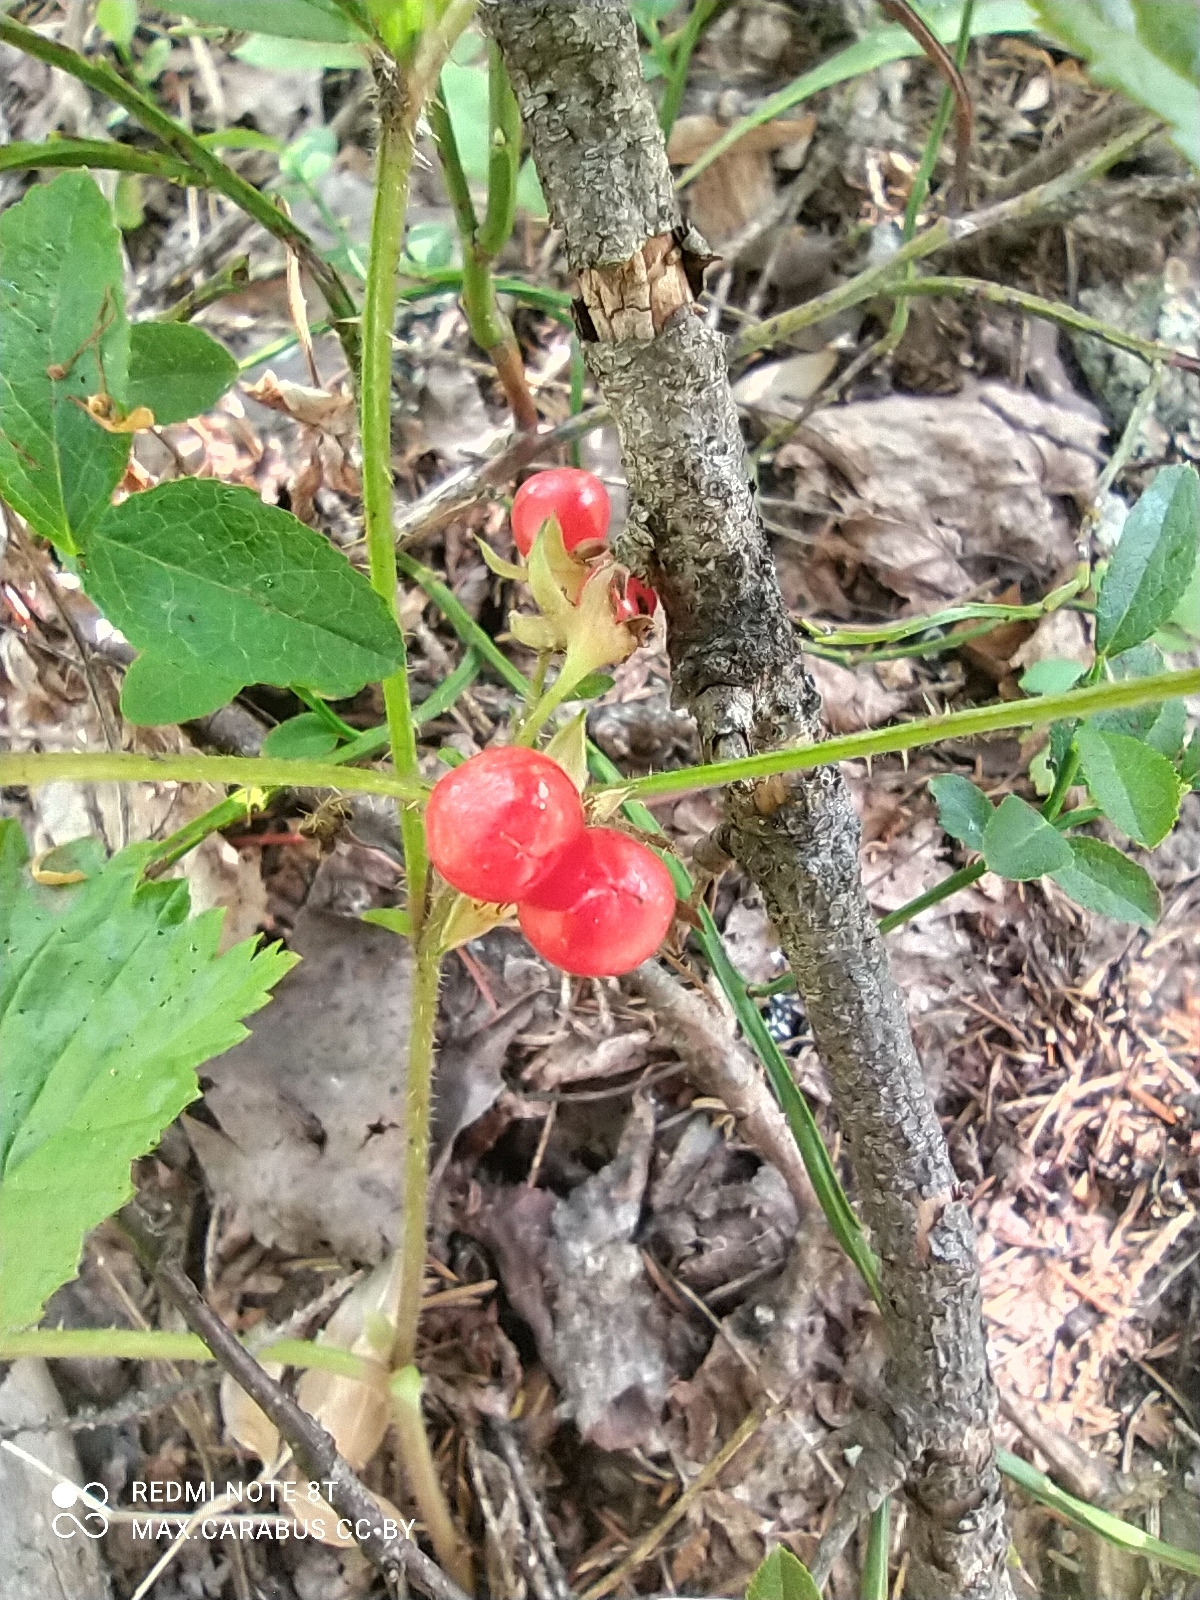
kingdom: Plantae
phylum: Tracheophyta
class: Magnoliopsida
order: Rosales
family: Rosaceae
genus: Rubus
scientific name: Rubus saxatilis
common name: Stone bramble
